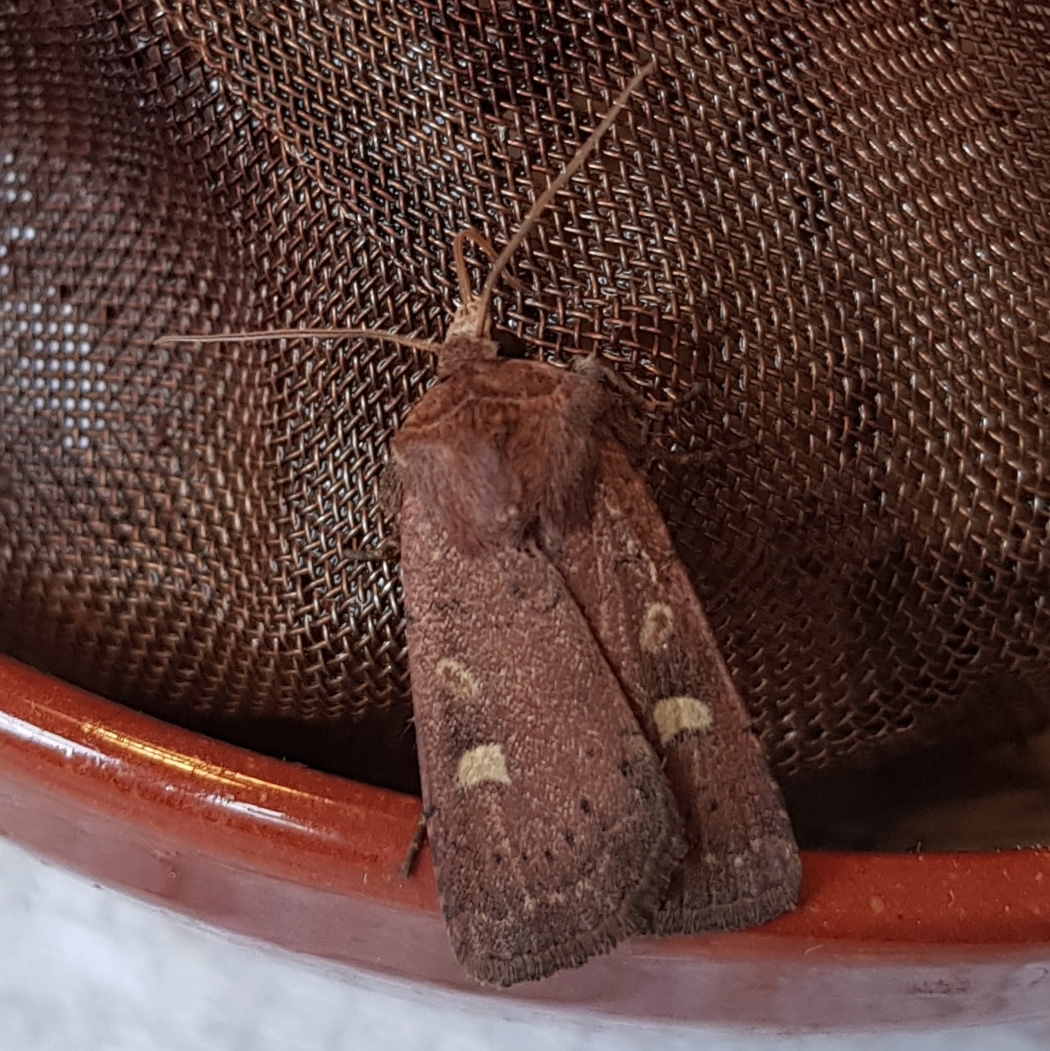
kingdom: Animalia
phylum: Arthropoda
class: Insecta
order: Lepidoptera
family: Noctuidae
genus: Xestia
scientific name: Xestia xanthographa
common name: Square-spot rustic
